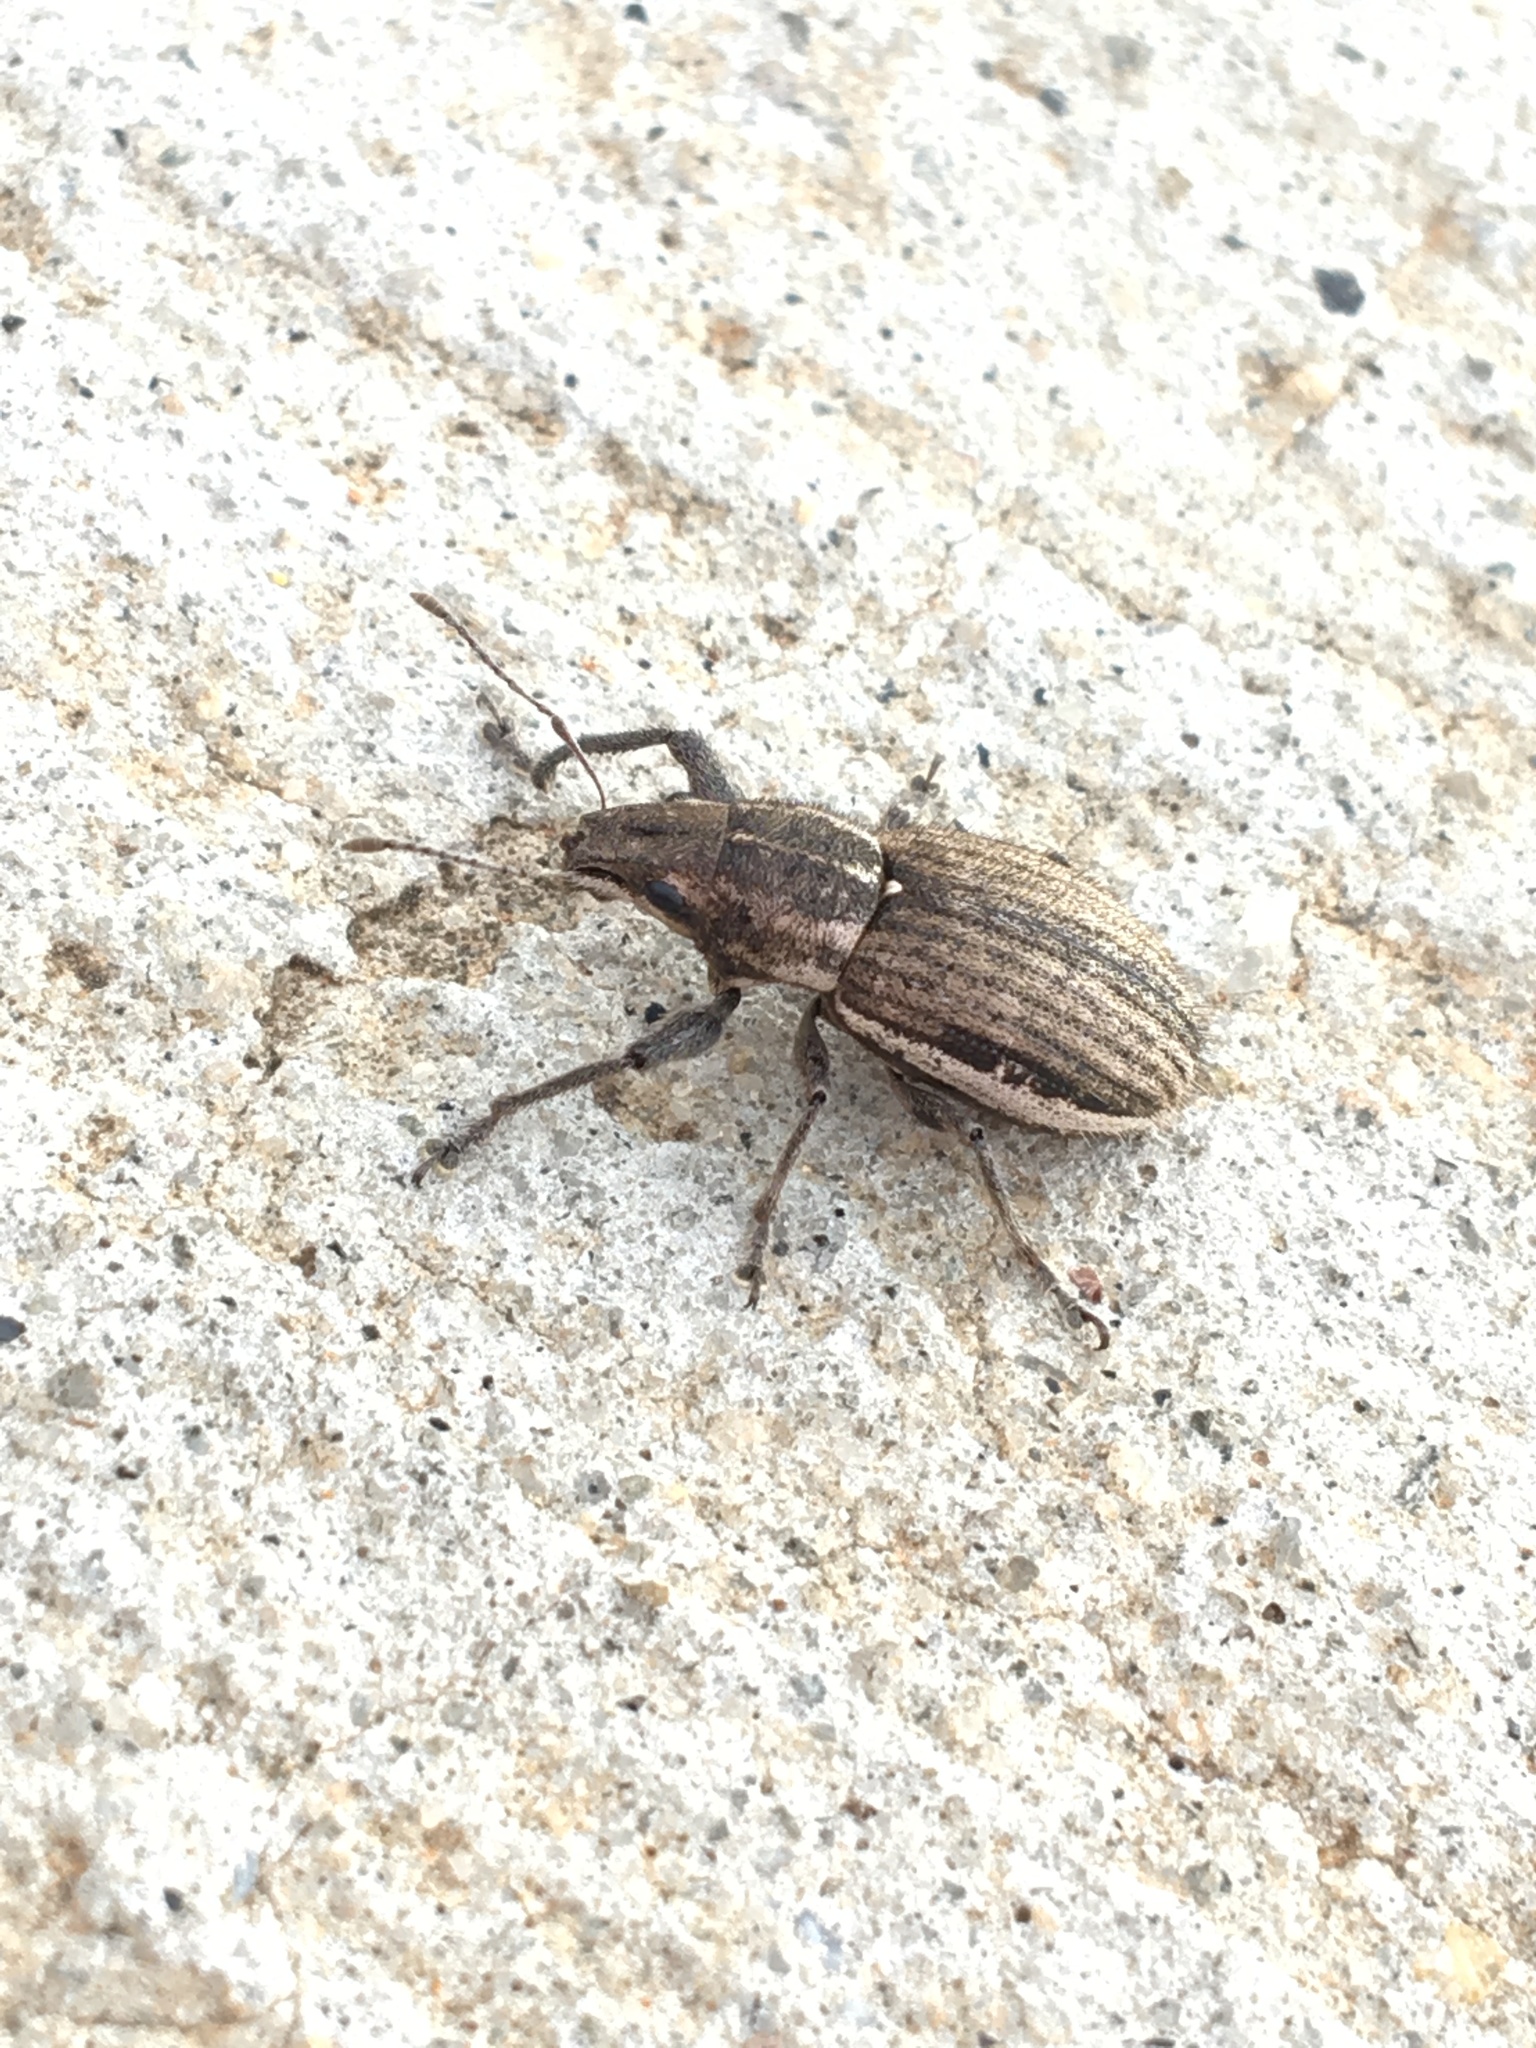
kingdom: Animalia
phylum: Arthropoda
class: Insecta
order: Coleoptera
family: Curculionidae
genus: Naupactus
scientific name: Naupactus leucoloma
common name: Whitefringed beetle
